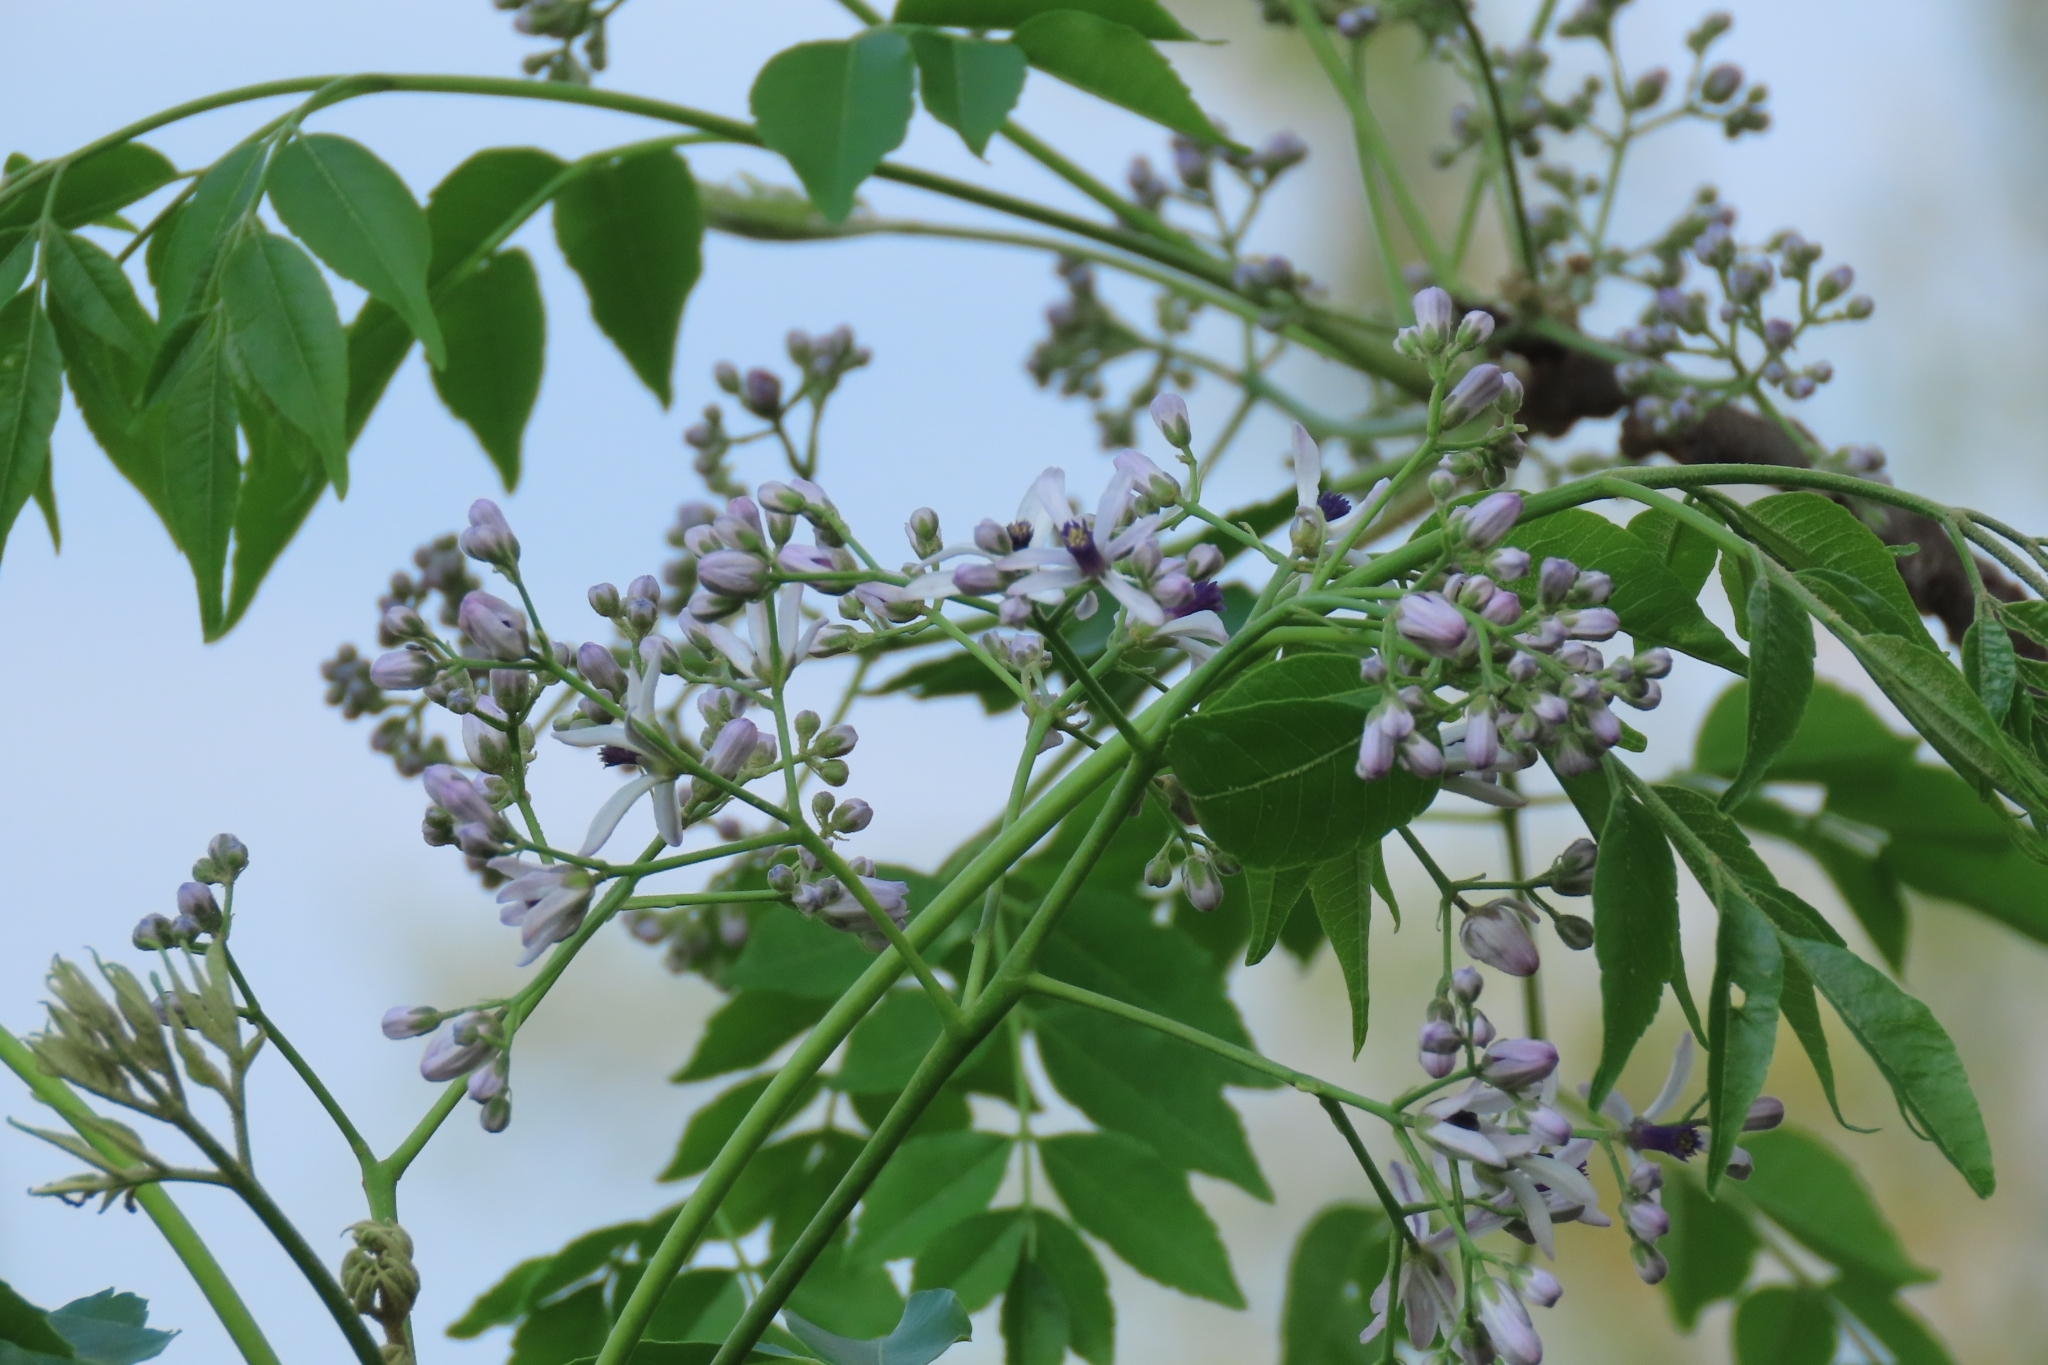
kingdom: Plantae
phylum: Tracheophyta
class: Magnoliopsida
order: Sapindales
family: Meliaceae
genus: Melia
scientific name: Melia azedarach
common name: Chinaberrytree
